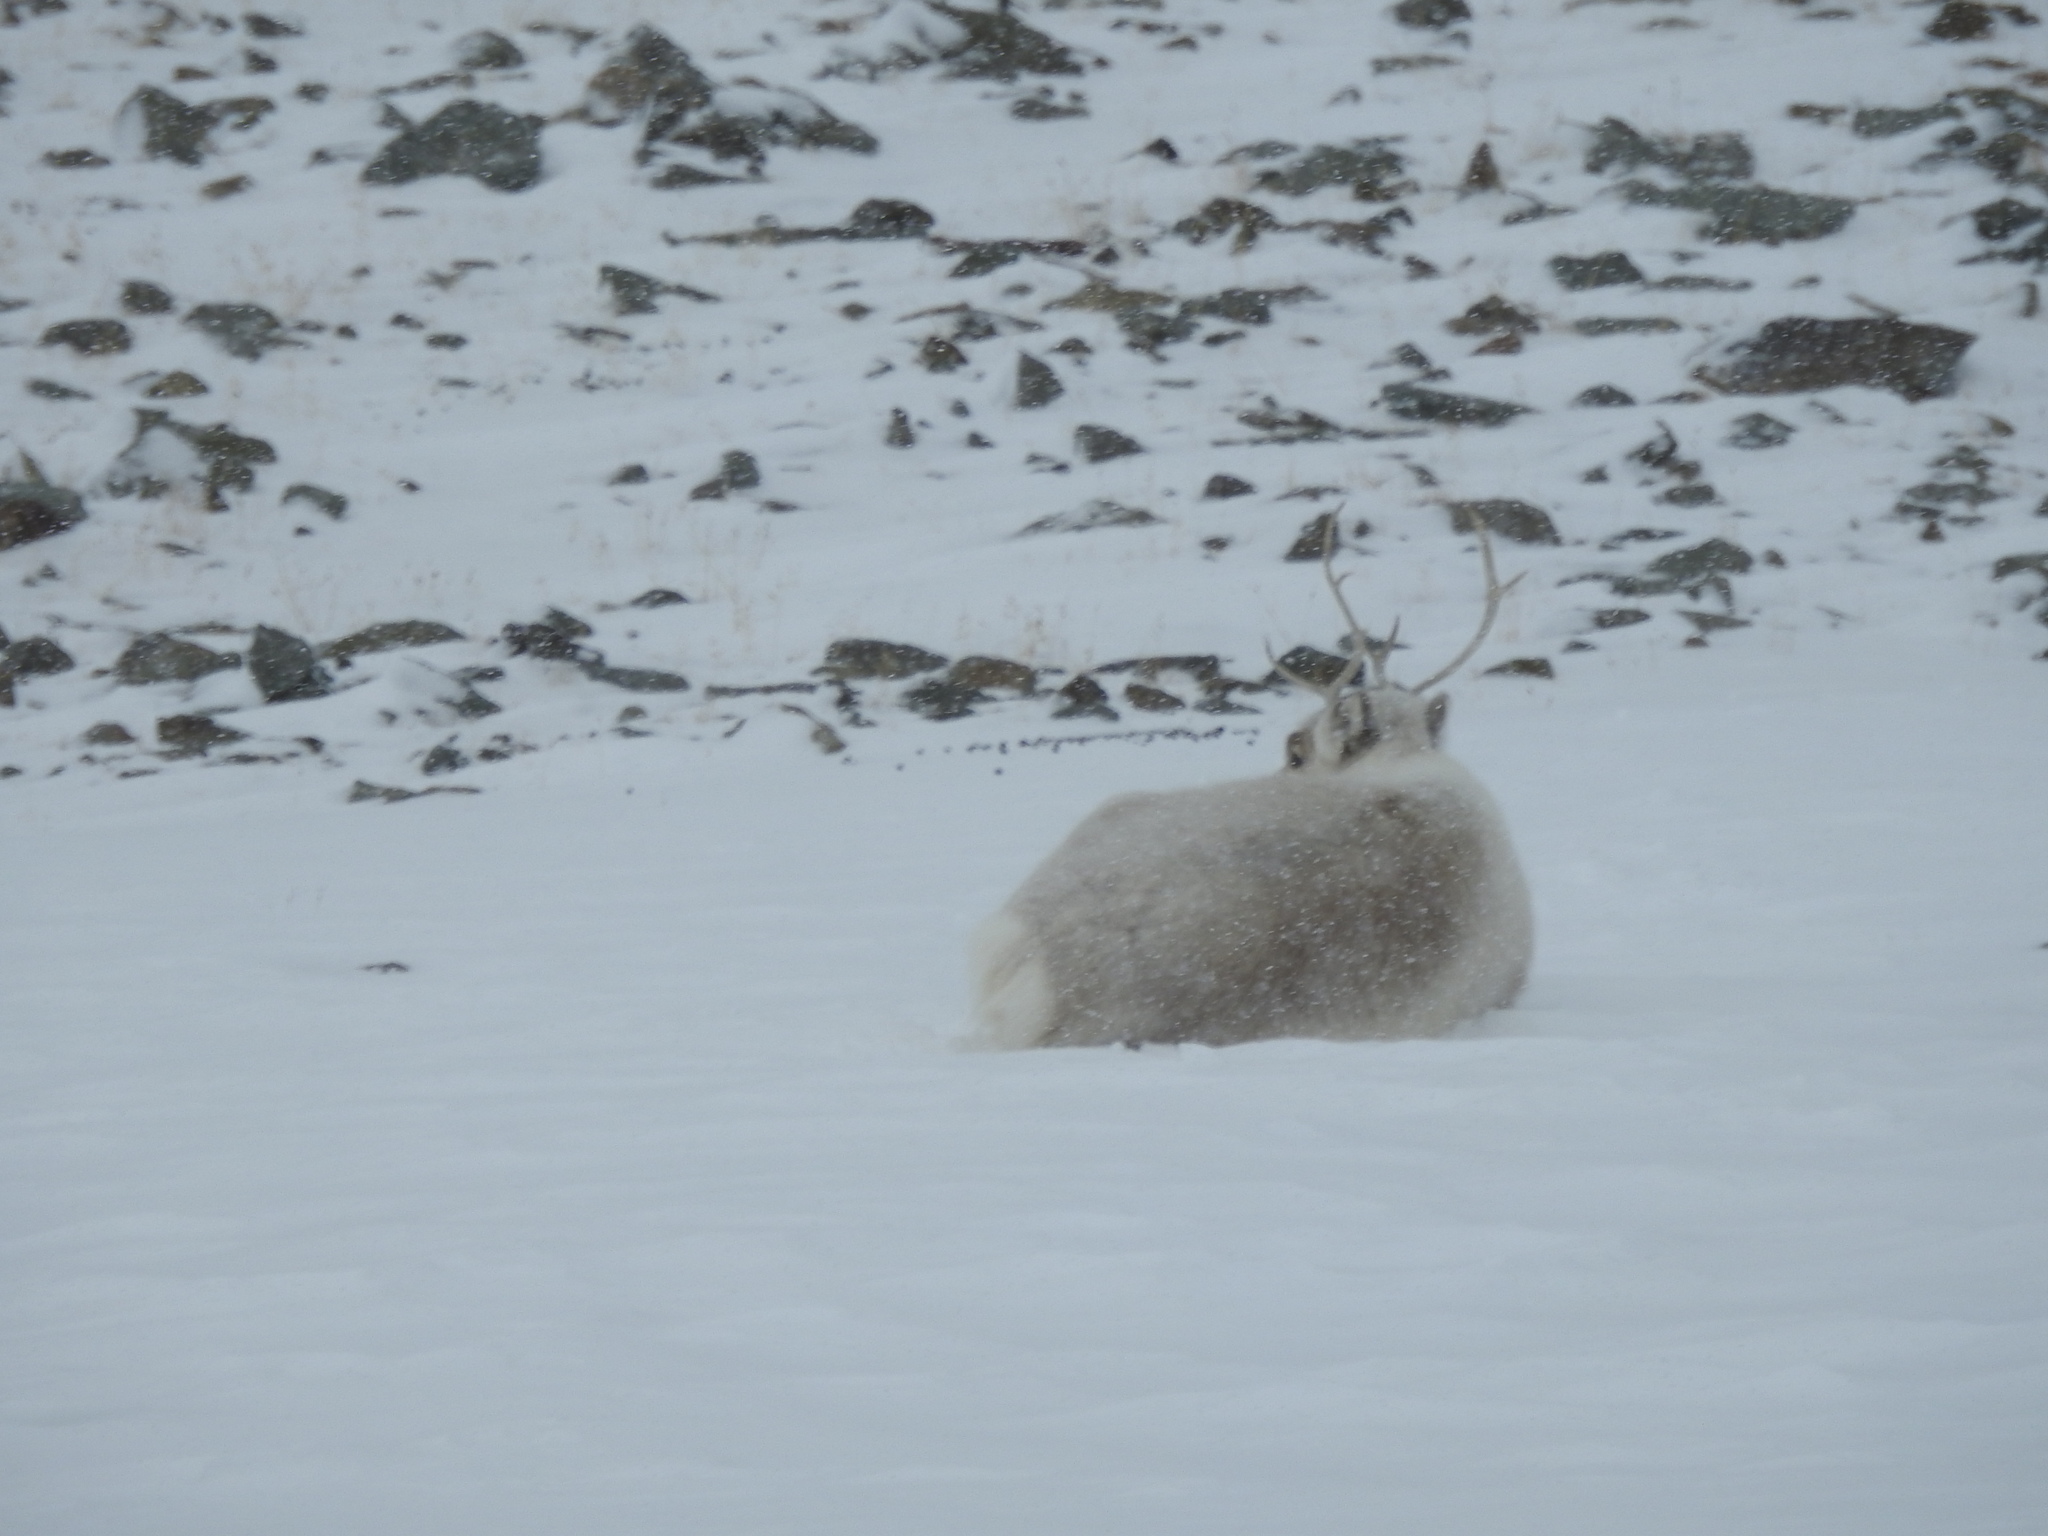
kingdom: Animalia
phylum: Chordata
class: Mammalia
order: Artiodactyla
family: Cervidae
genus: Rangifer
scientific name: Rangifer tarandus
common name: Reindeer
